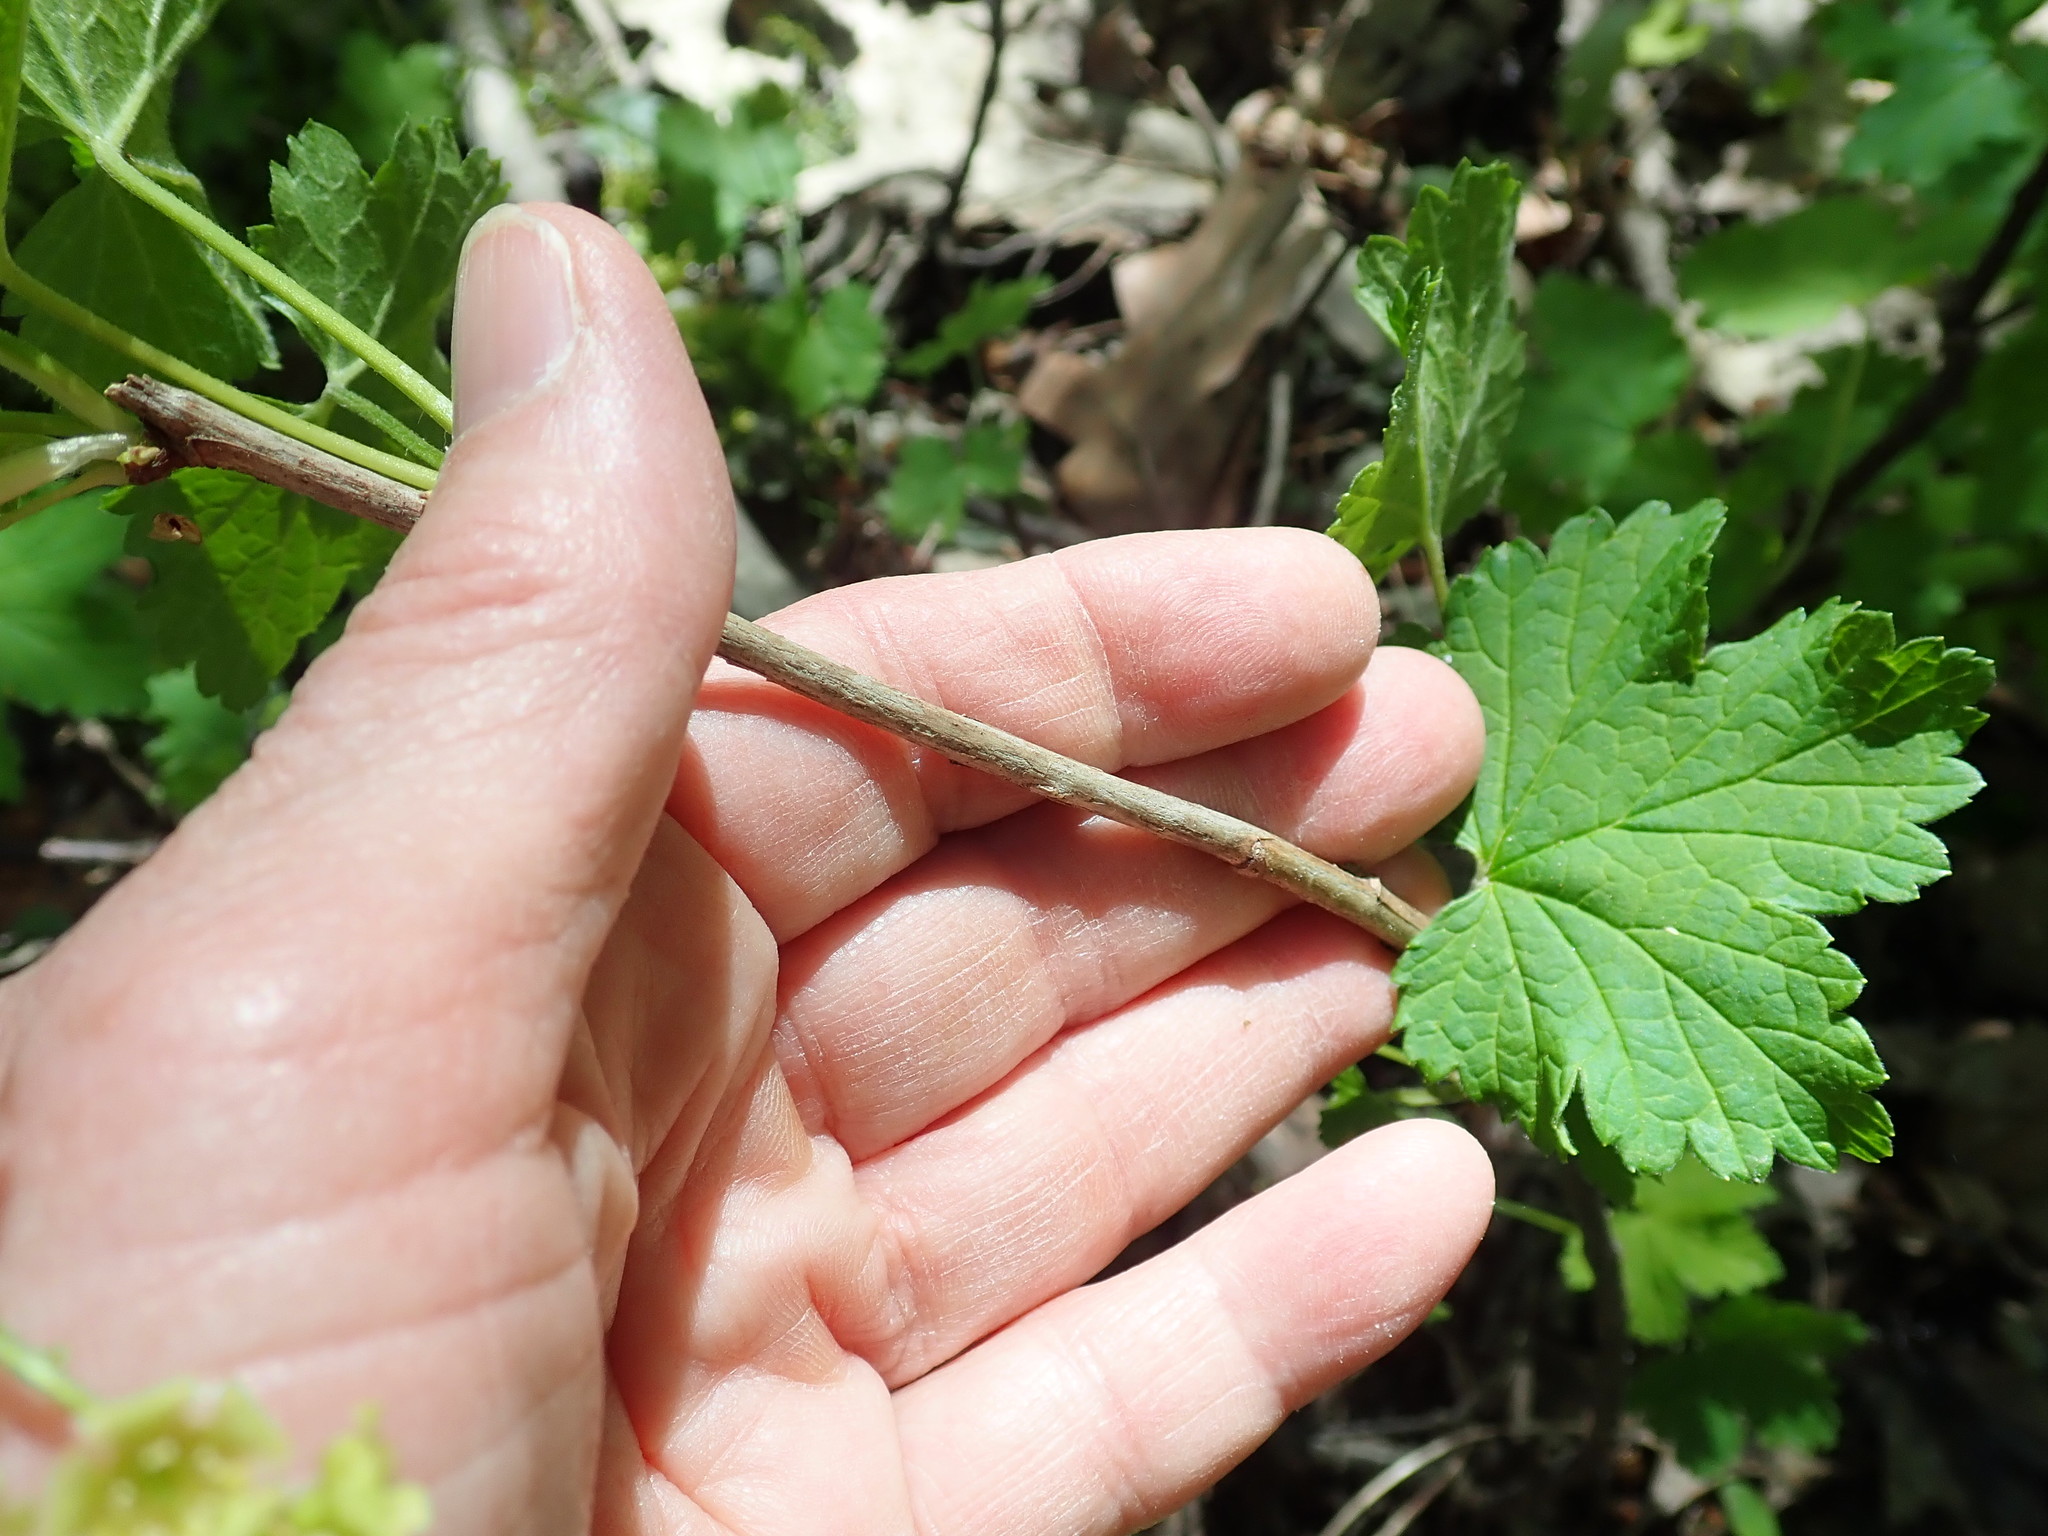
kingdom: Plantae
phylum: Tracheophyta
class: Magnoliopsida
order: Saxifragales
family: Grossulariaceae
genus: Ribes
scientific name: Ribes rubrum
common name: Red currant
